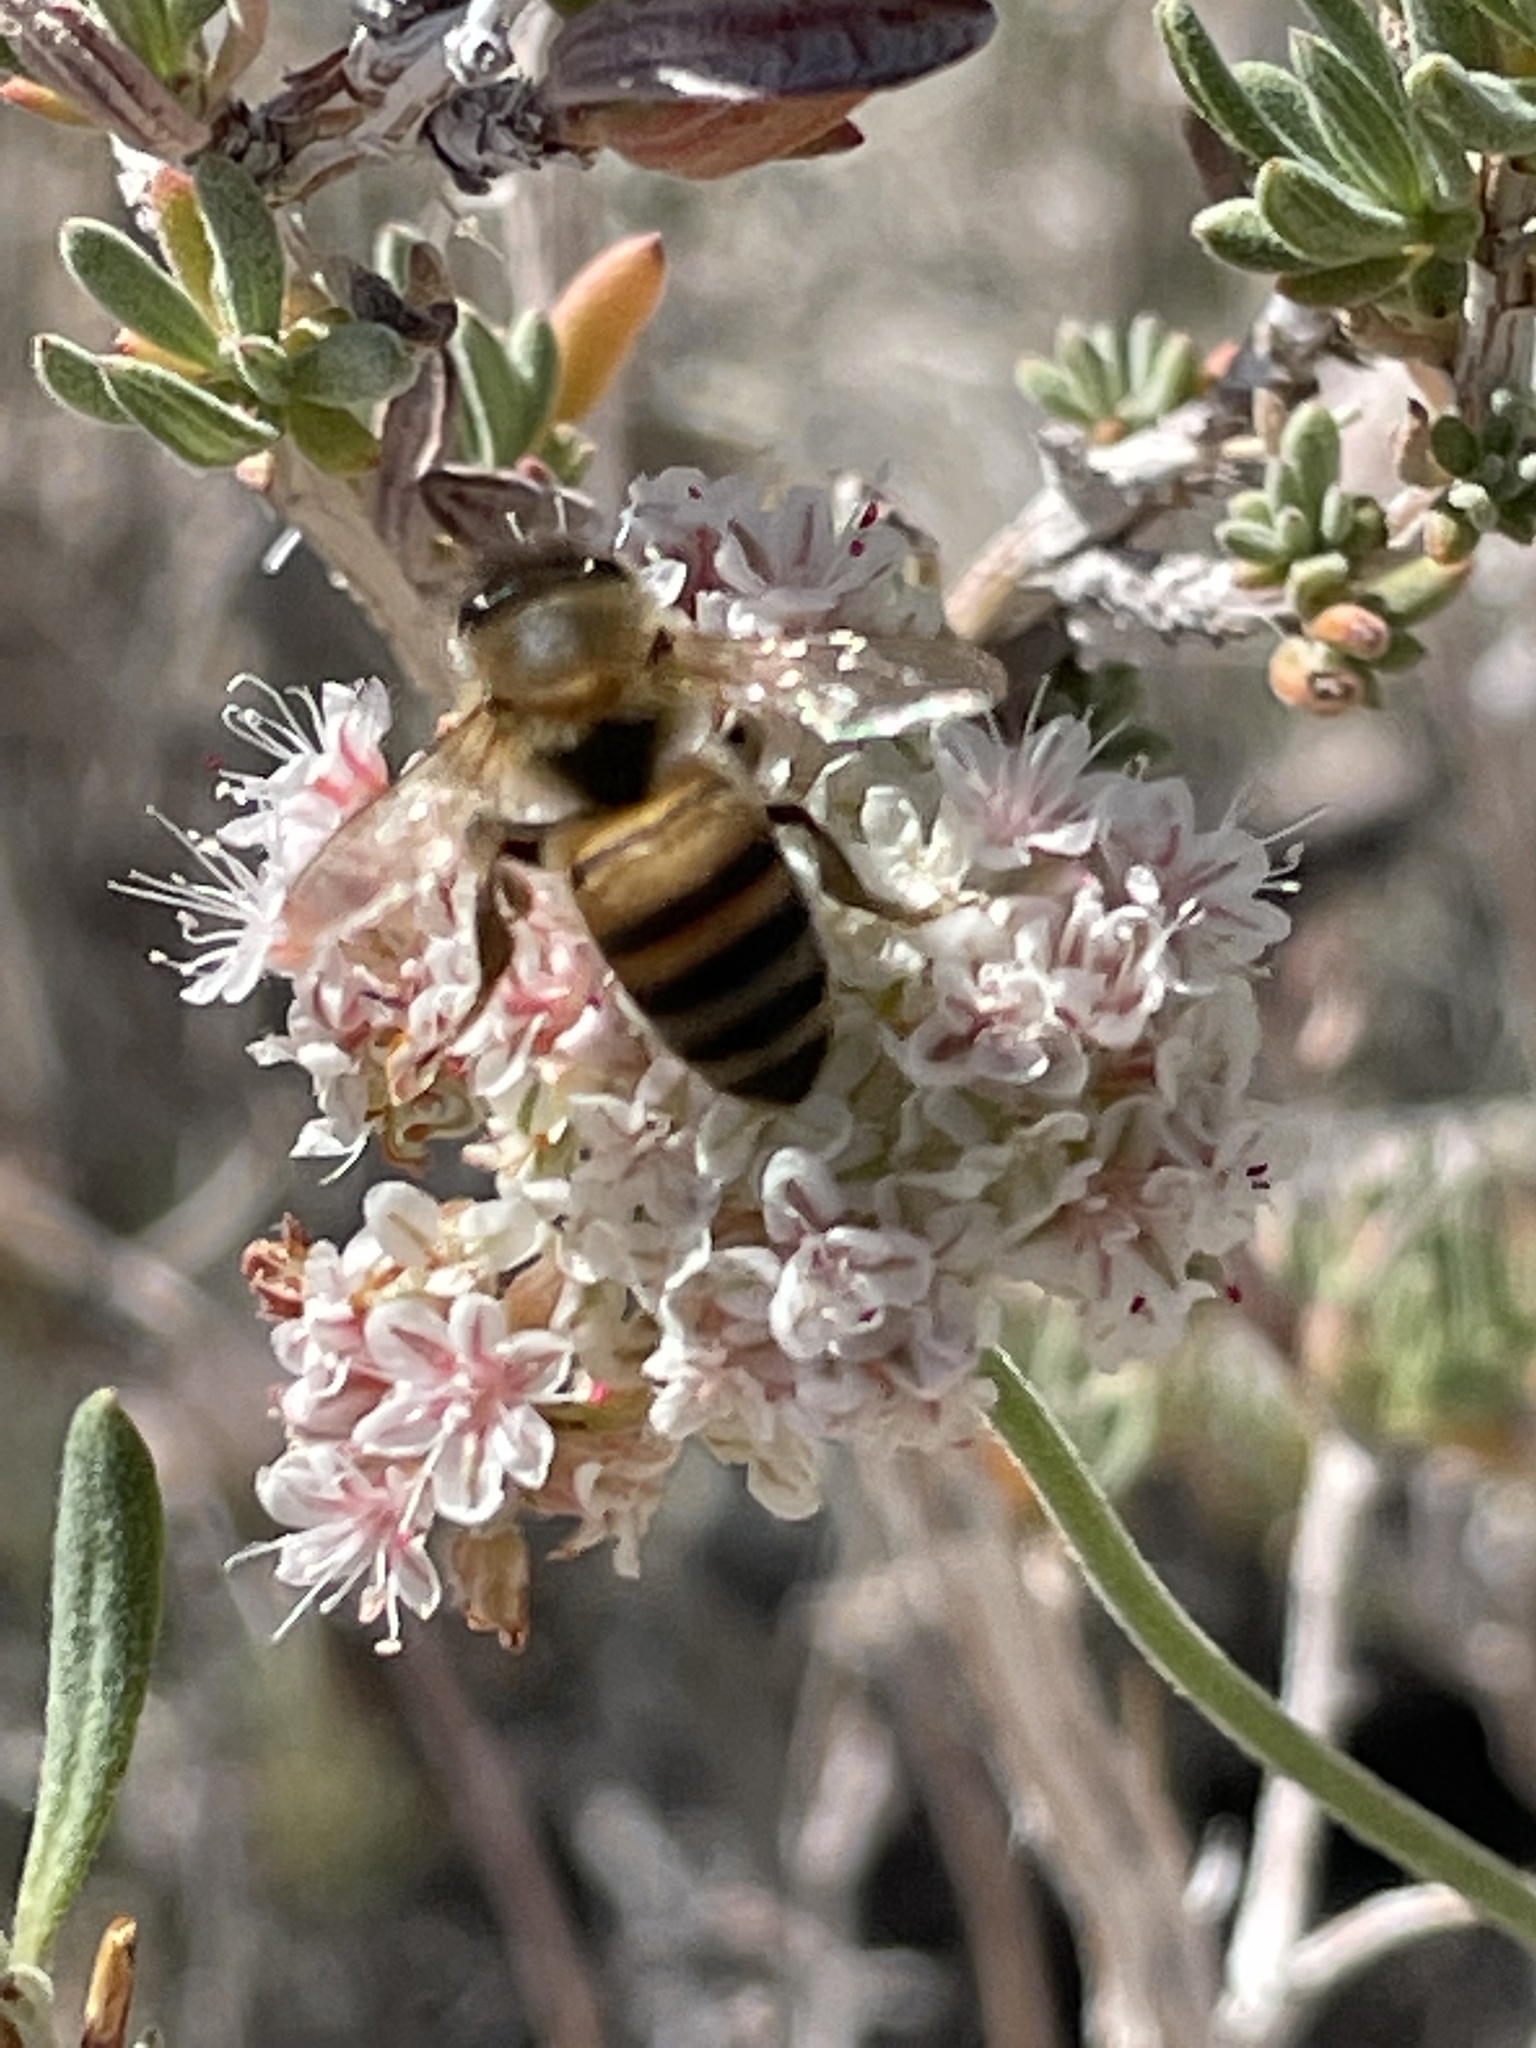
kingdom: Animalia
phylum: Arthropoda
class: Insecta
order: Hymenoptera
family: Apidae
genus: Apis
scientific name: Apis mellifera
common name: Honey bee
